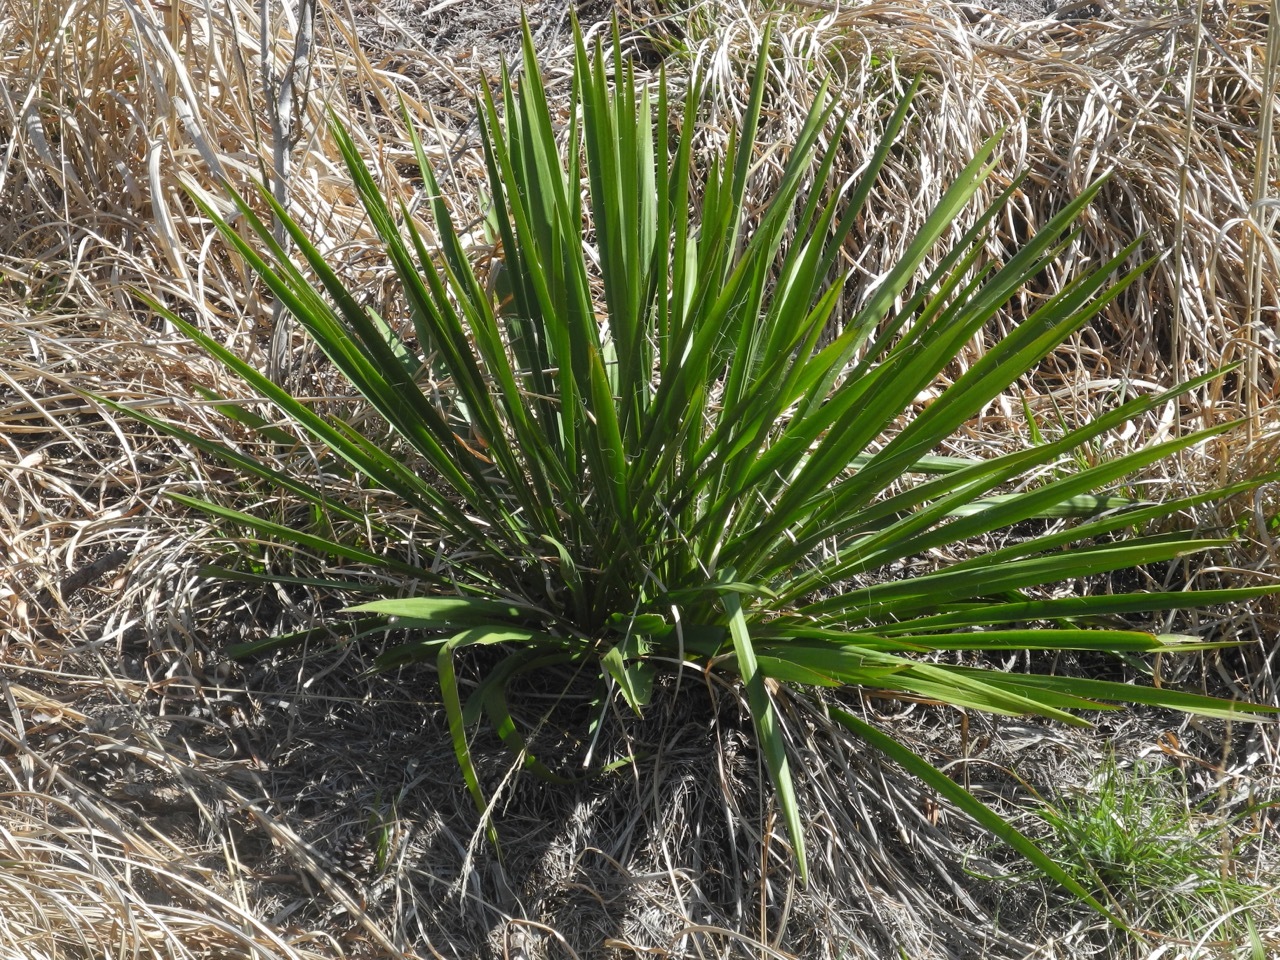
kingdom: Plantae
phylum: Tracheophyta
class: Liliopsida
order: Asparagales
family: Asparagaceae
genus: Yucca
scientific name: Yucca filamentosa
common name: Adam's-needle
